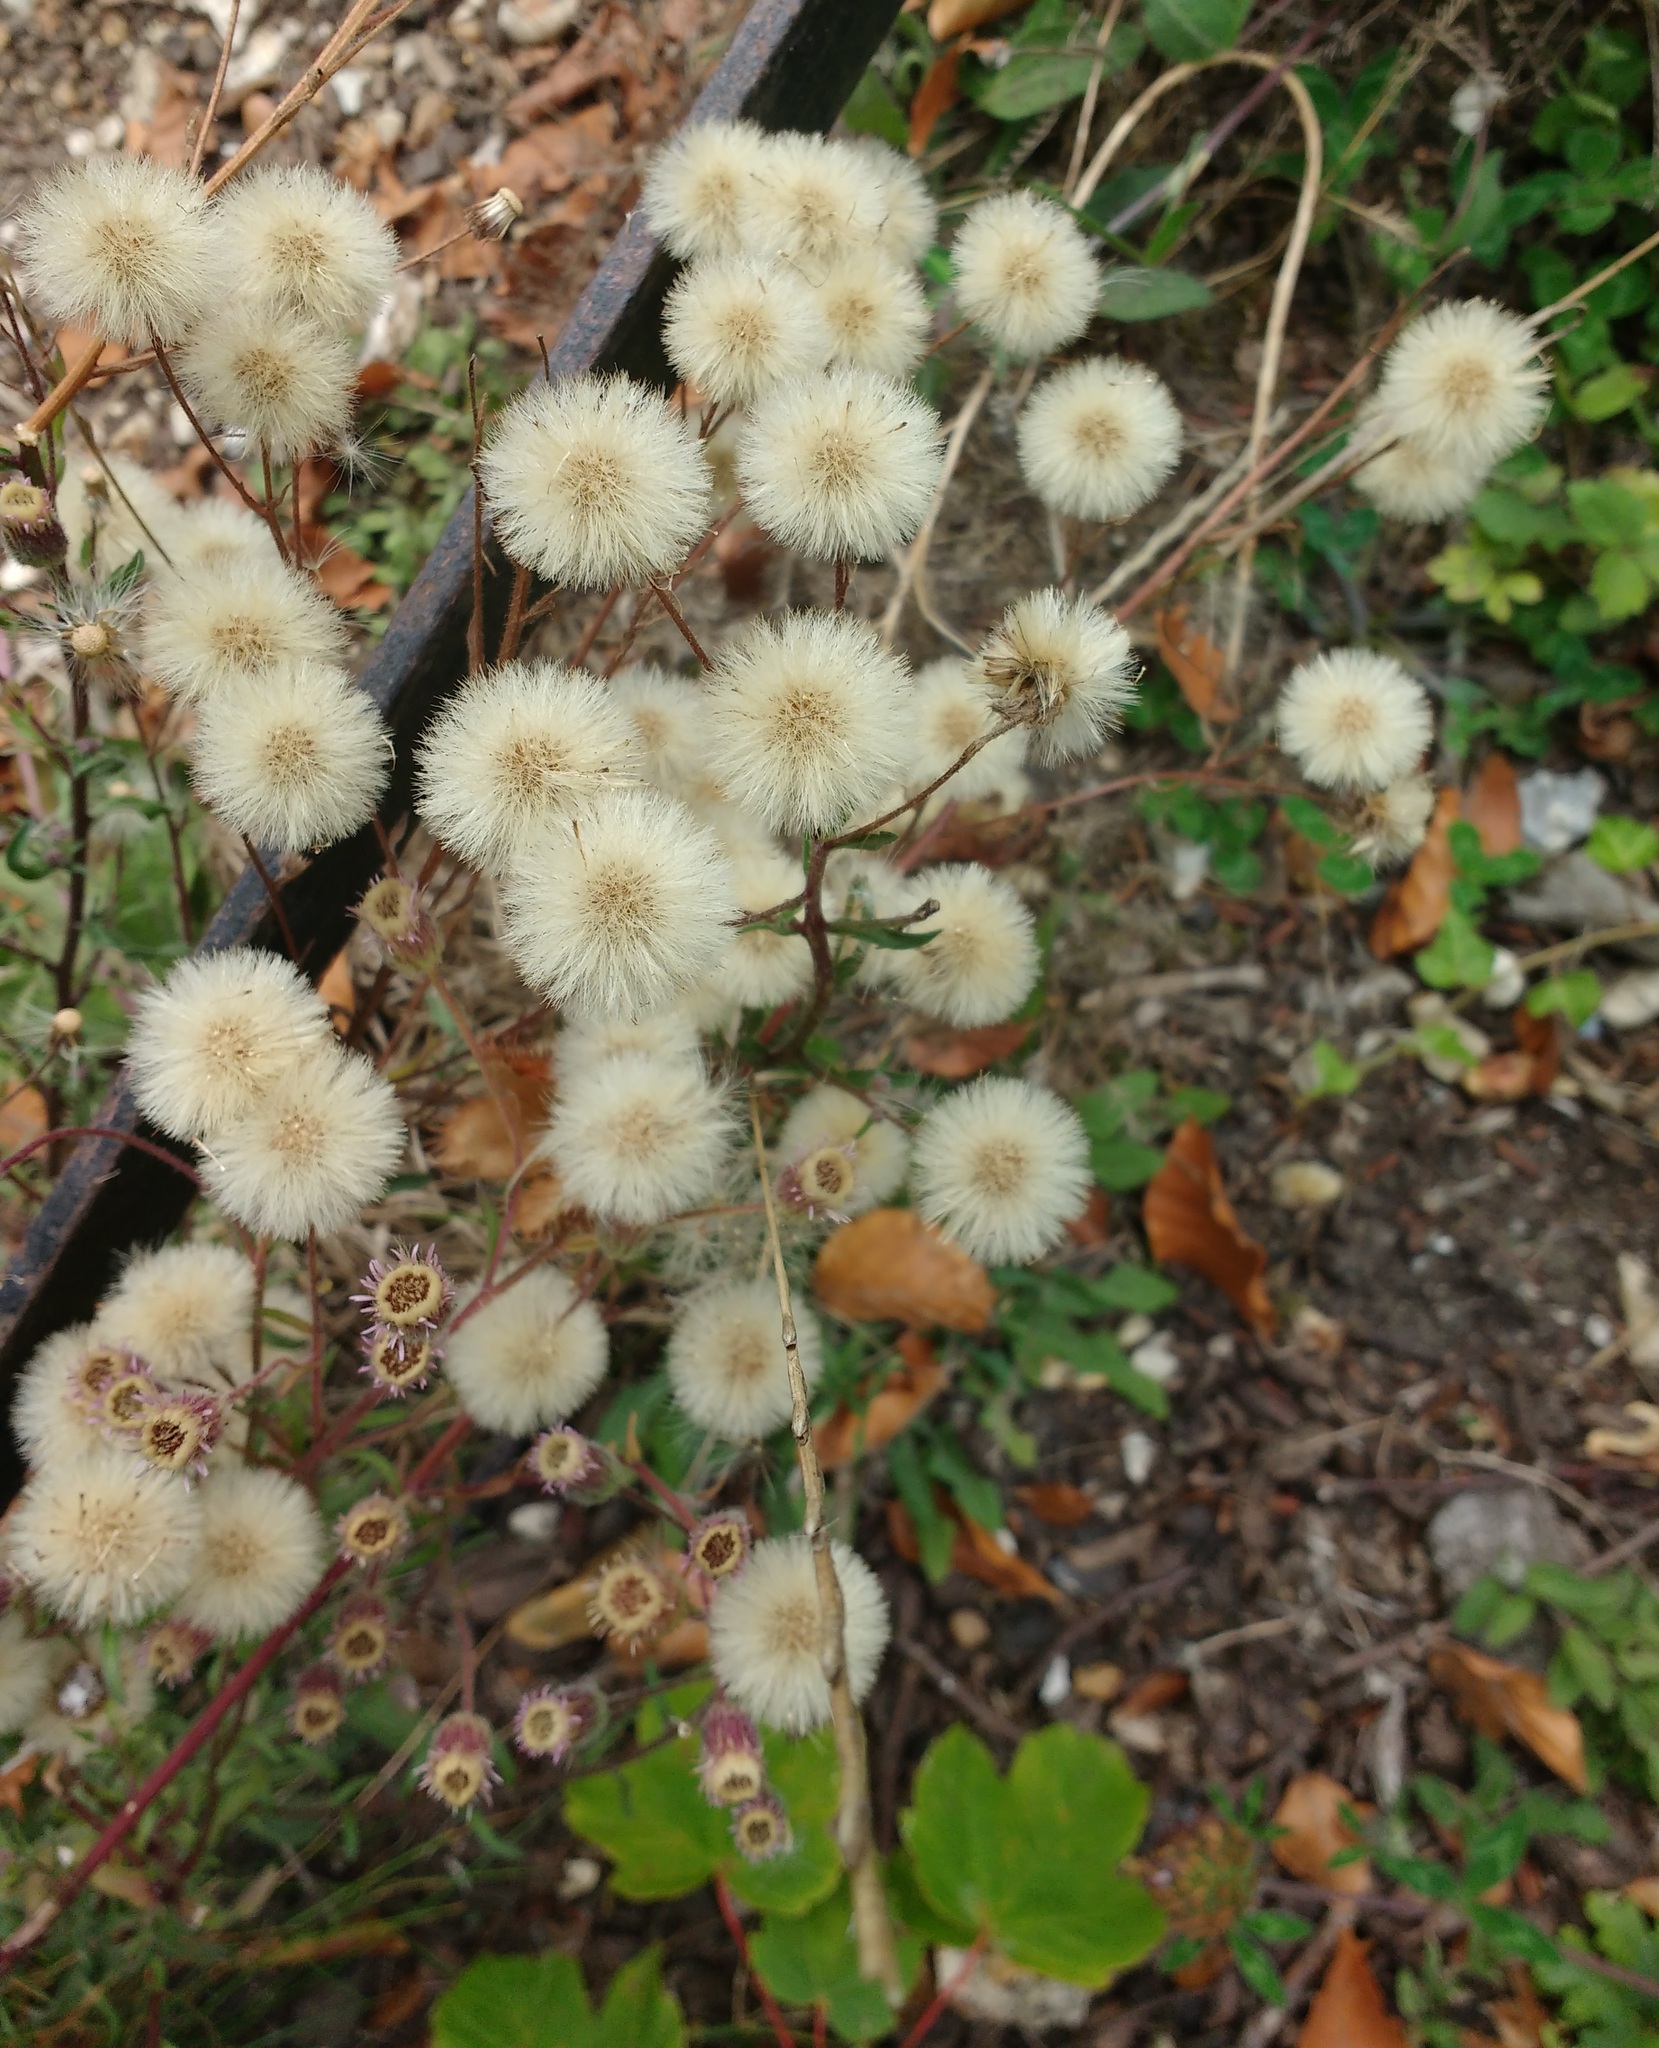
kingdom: Plantae
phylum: Tracheophyta
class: Magnoliopsida
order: Asterales
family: Asteraceae
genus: Erigeron
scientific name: Erigeron acris
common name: Blue fleabane
